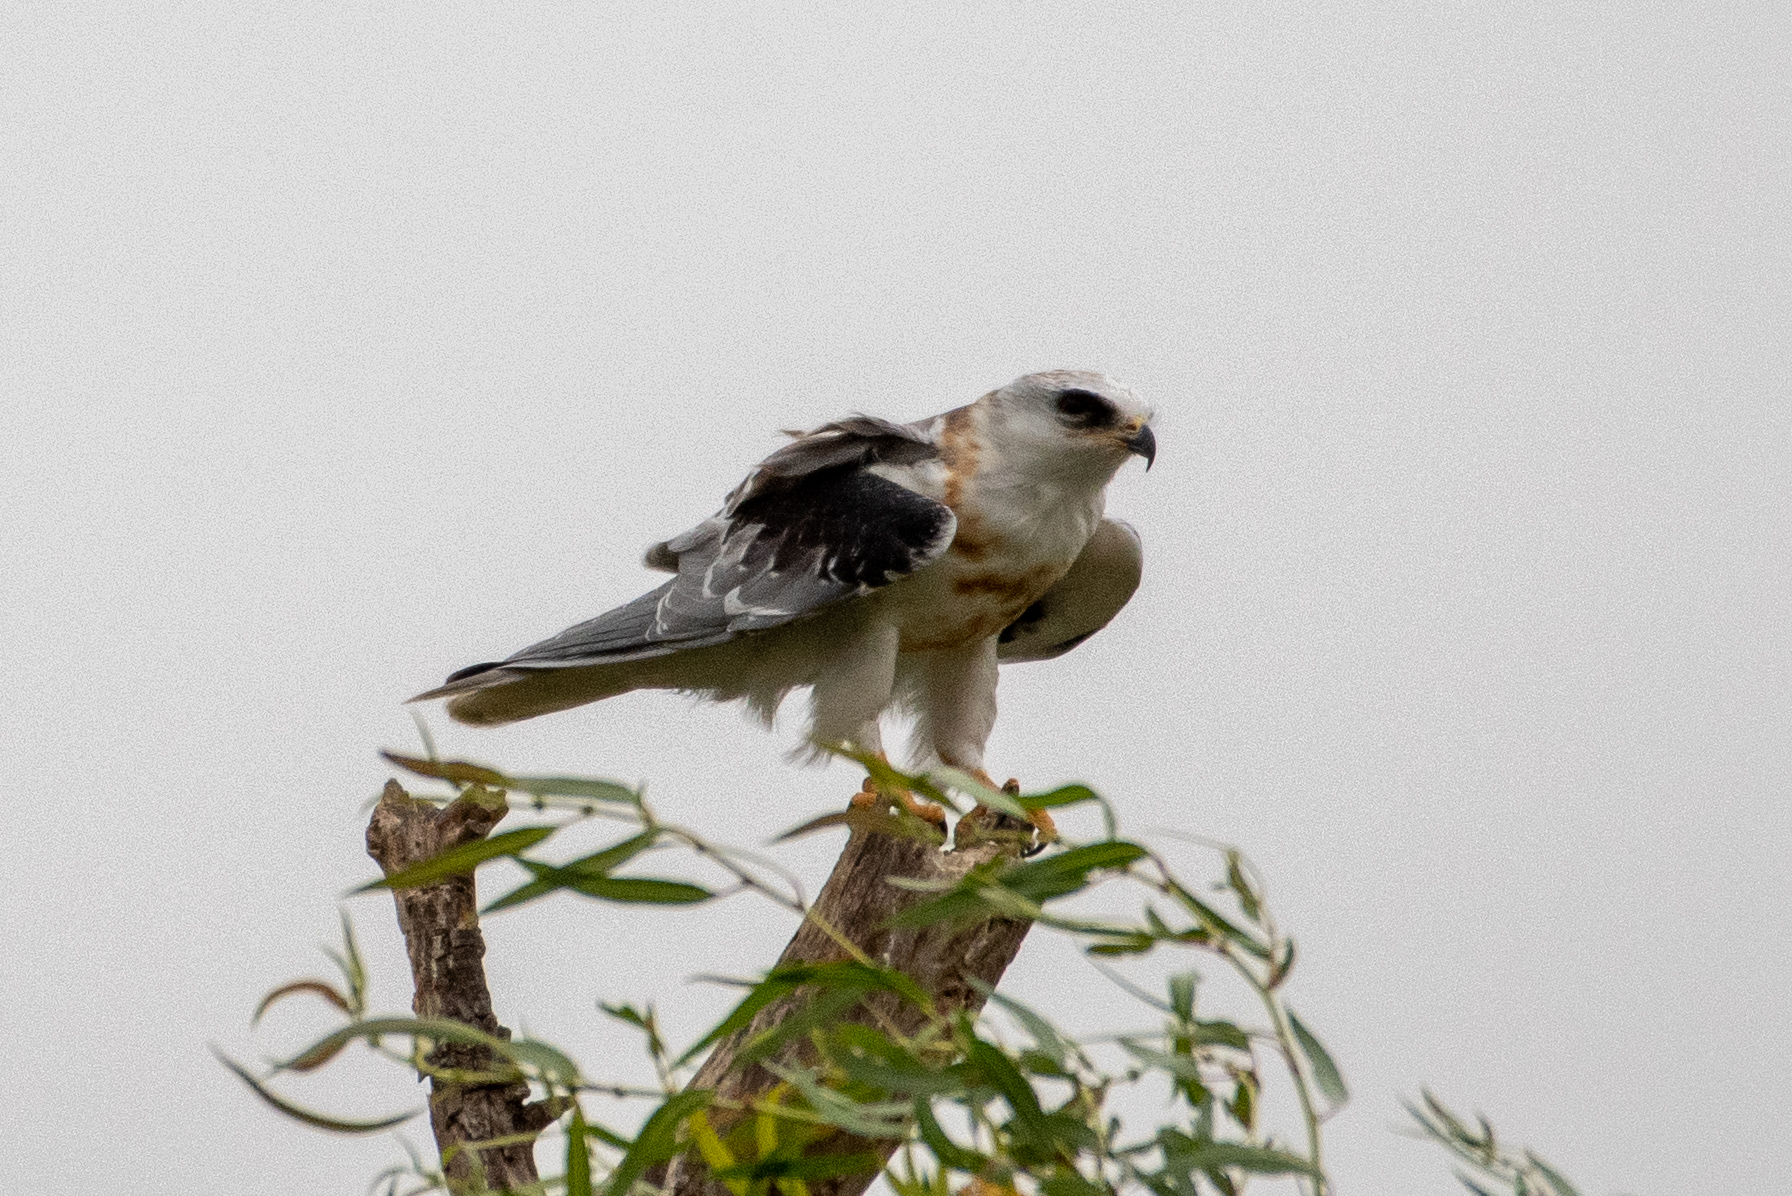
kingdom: Animalia
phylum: Chordata
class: Aves
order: Accipitriformes
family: Accipitridae
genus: Elanus
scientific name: Elanus leucurus
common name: White-tailed kite
